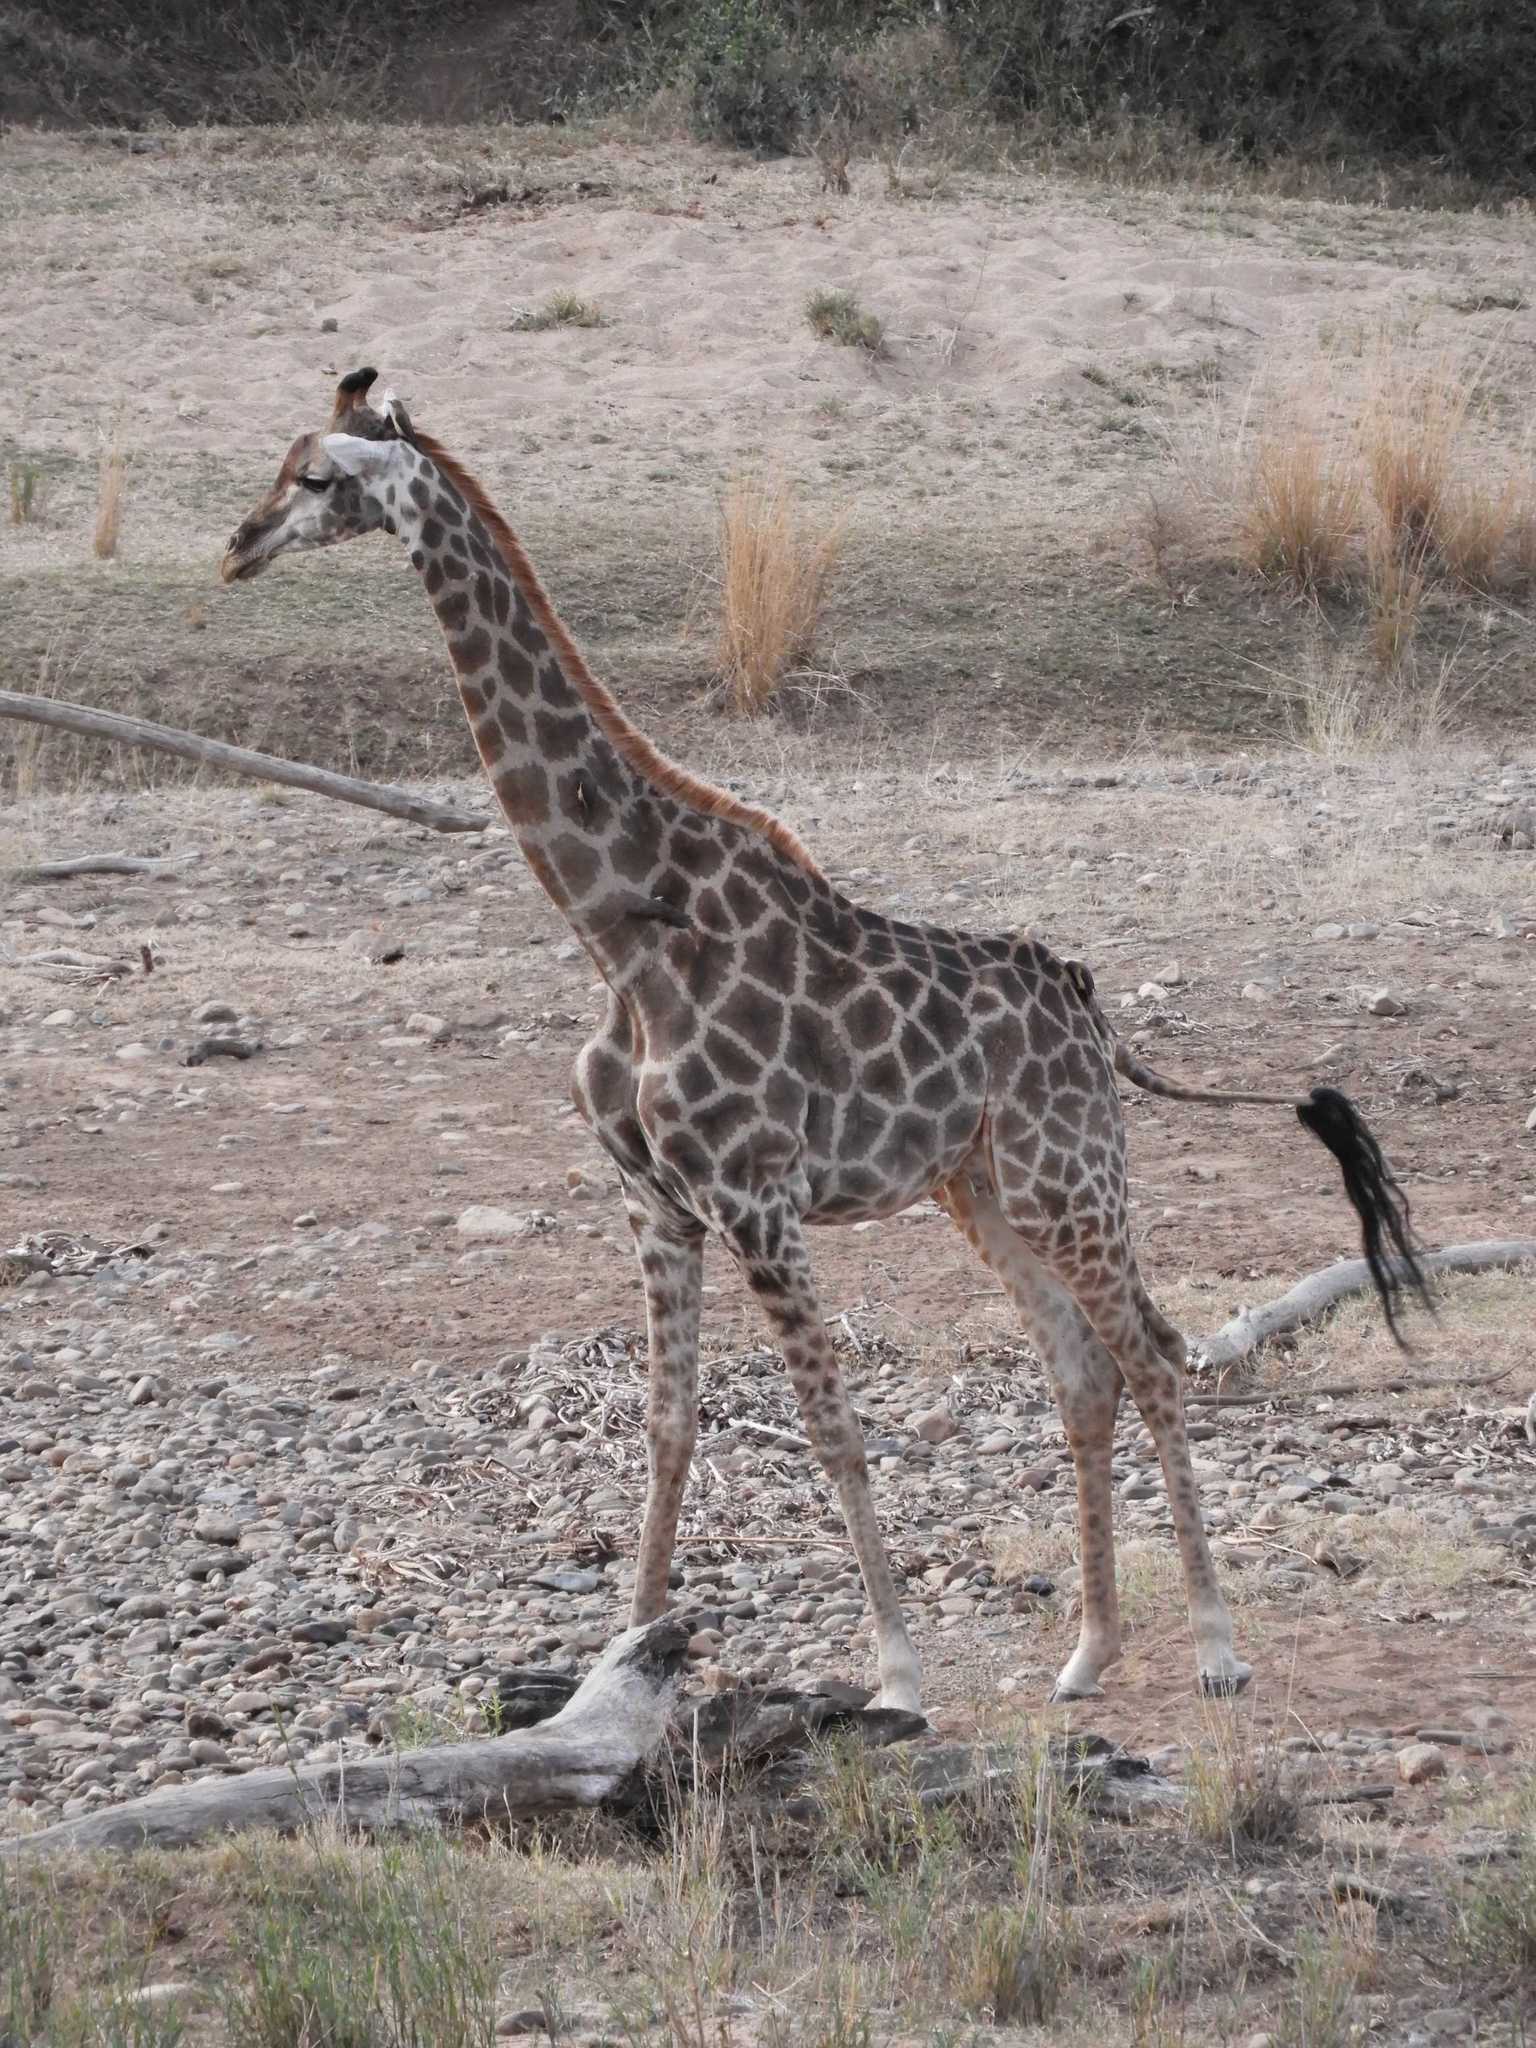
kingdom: Animalia
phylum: Chordata
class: Mammalia
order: Artiodactyla
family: Giraffidae
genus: Giraffa
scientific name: Giraffa giraffa
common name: Southern giraffe
